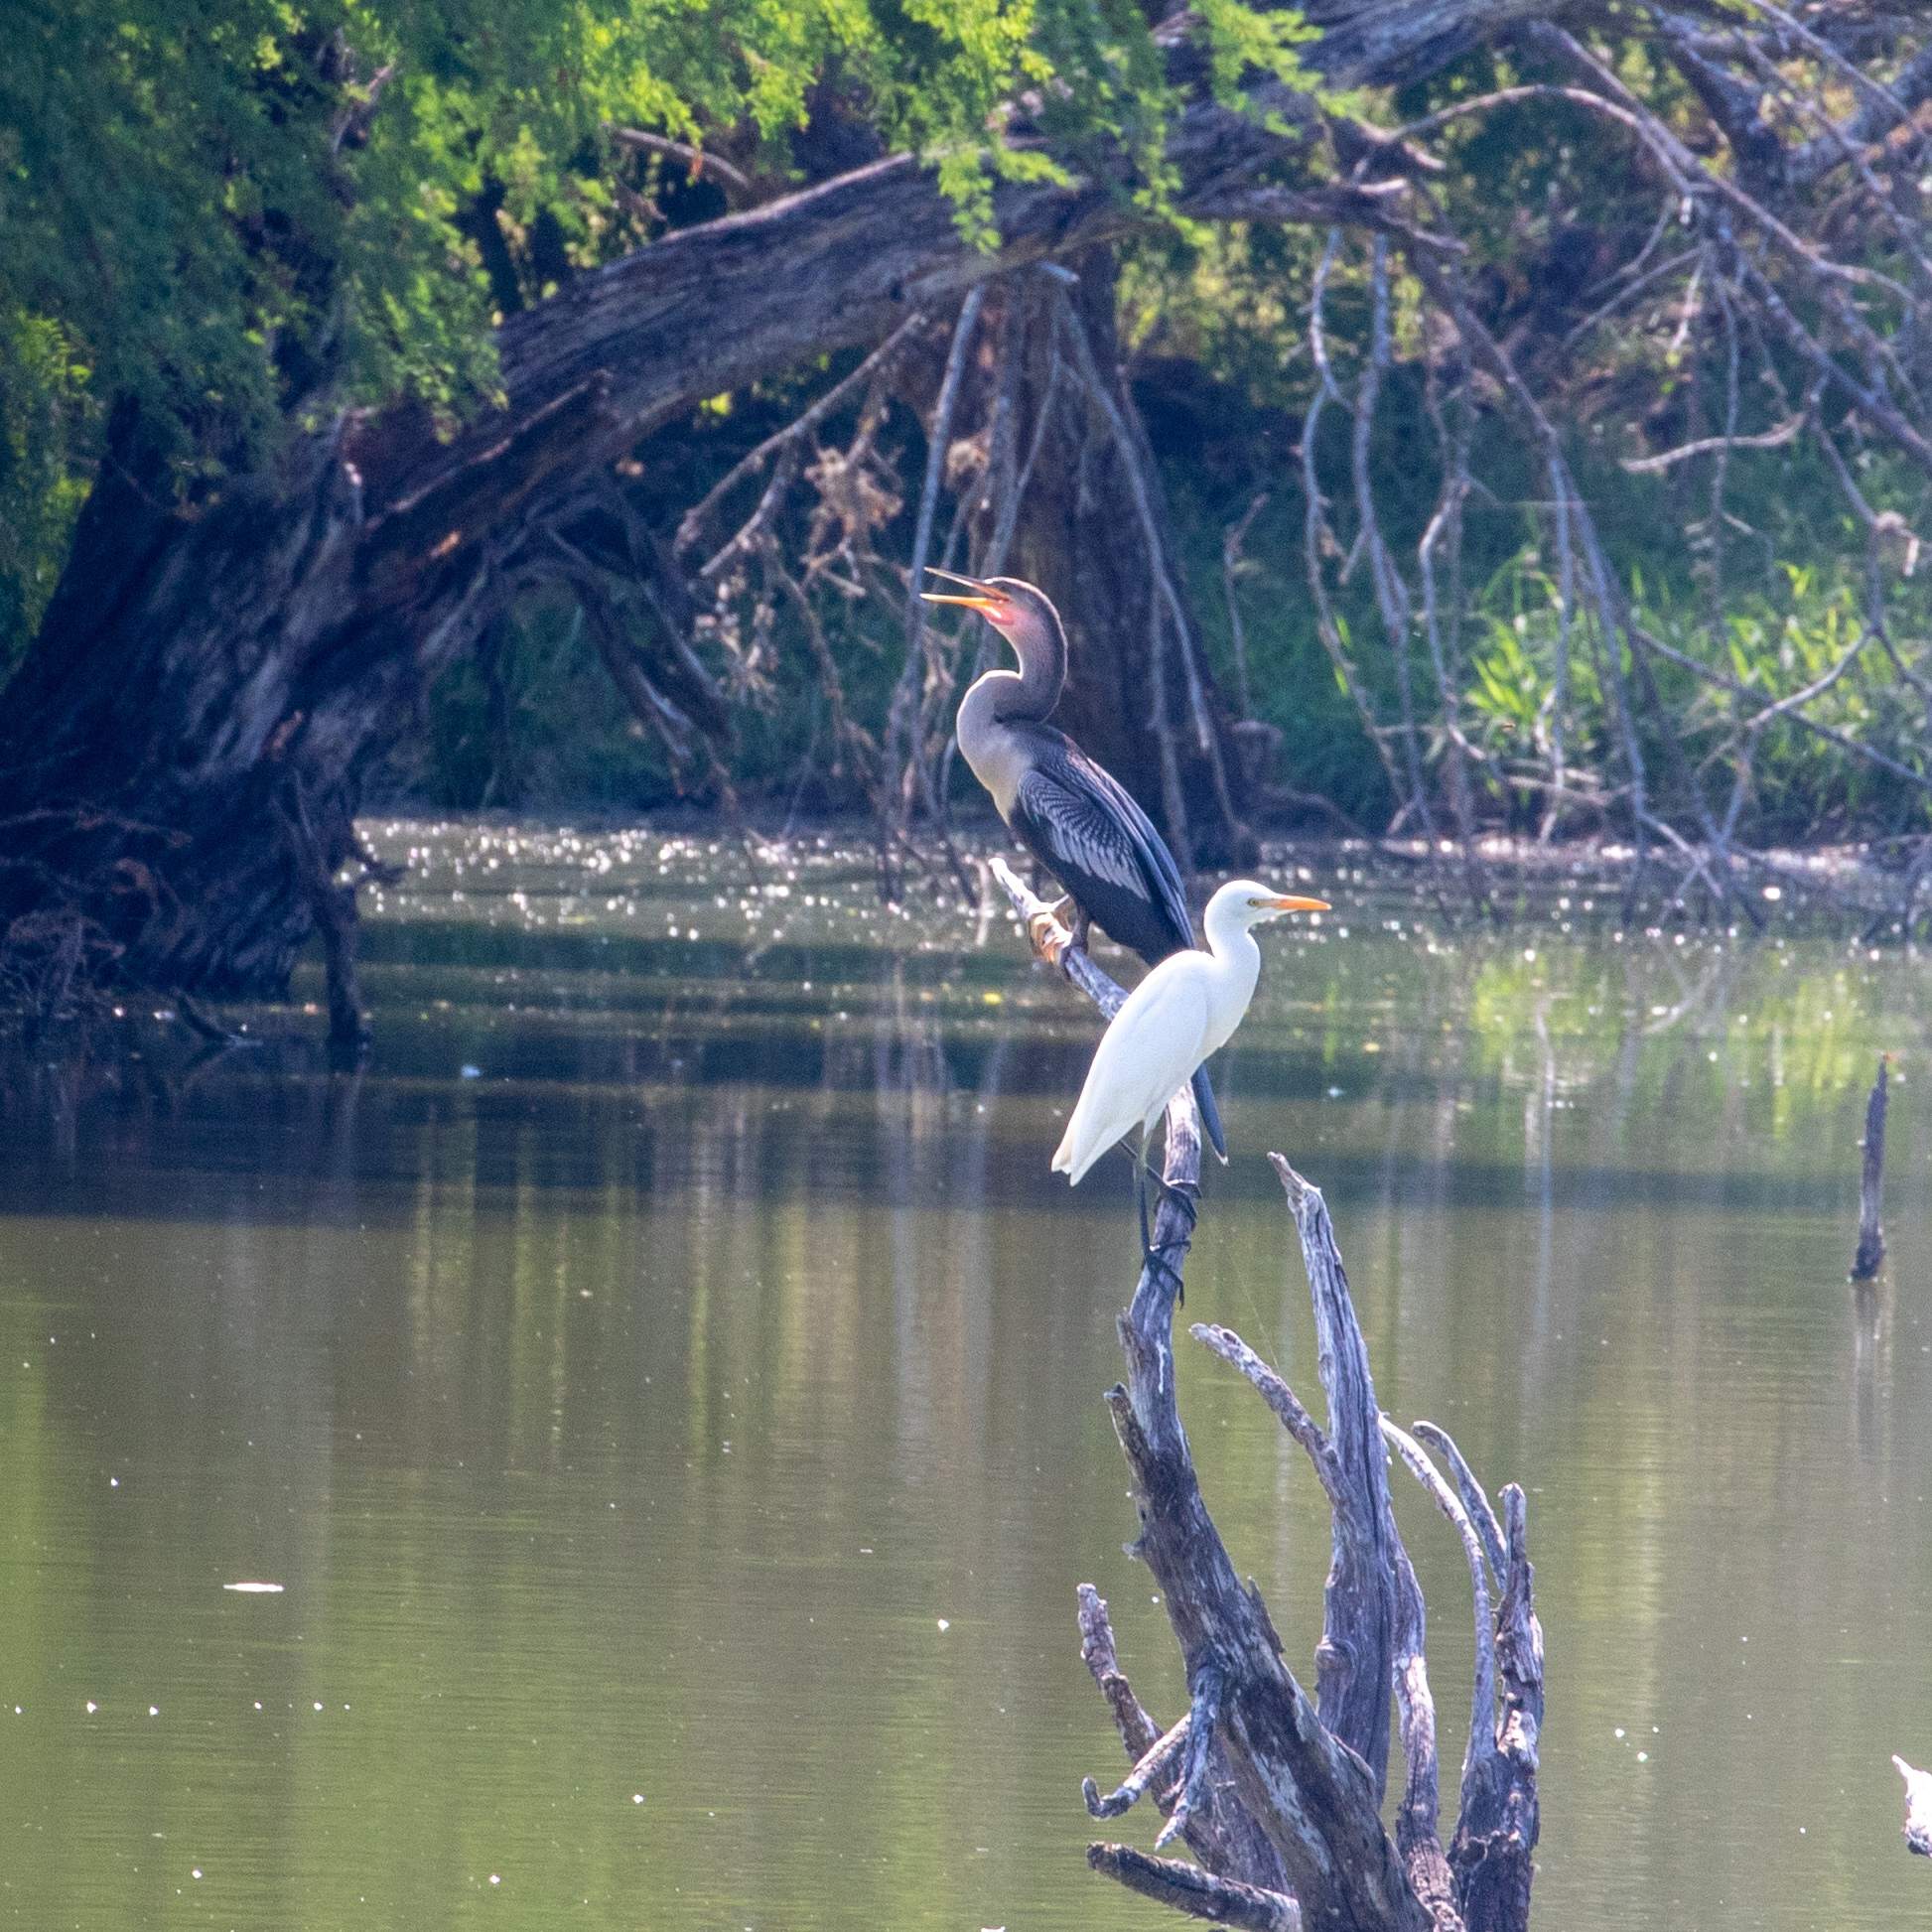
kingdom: Animalia
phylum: Chordata
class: Aves
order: Suliformes
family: Anhingidae
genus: Anhinga
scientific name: Anhinga anhinga
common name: Anhinga
